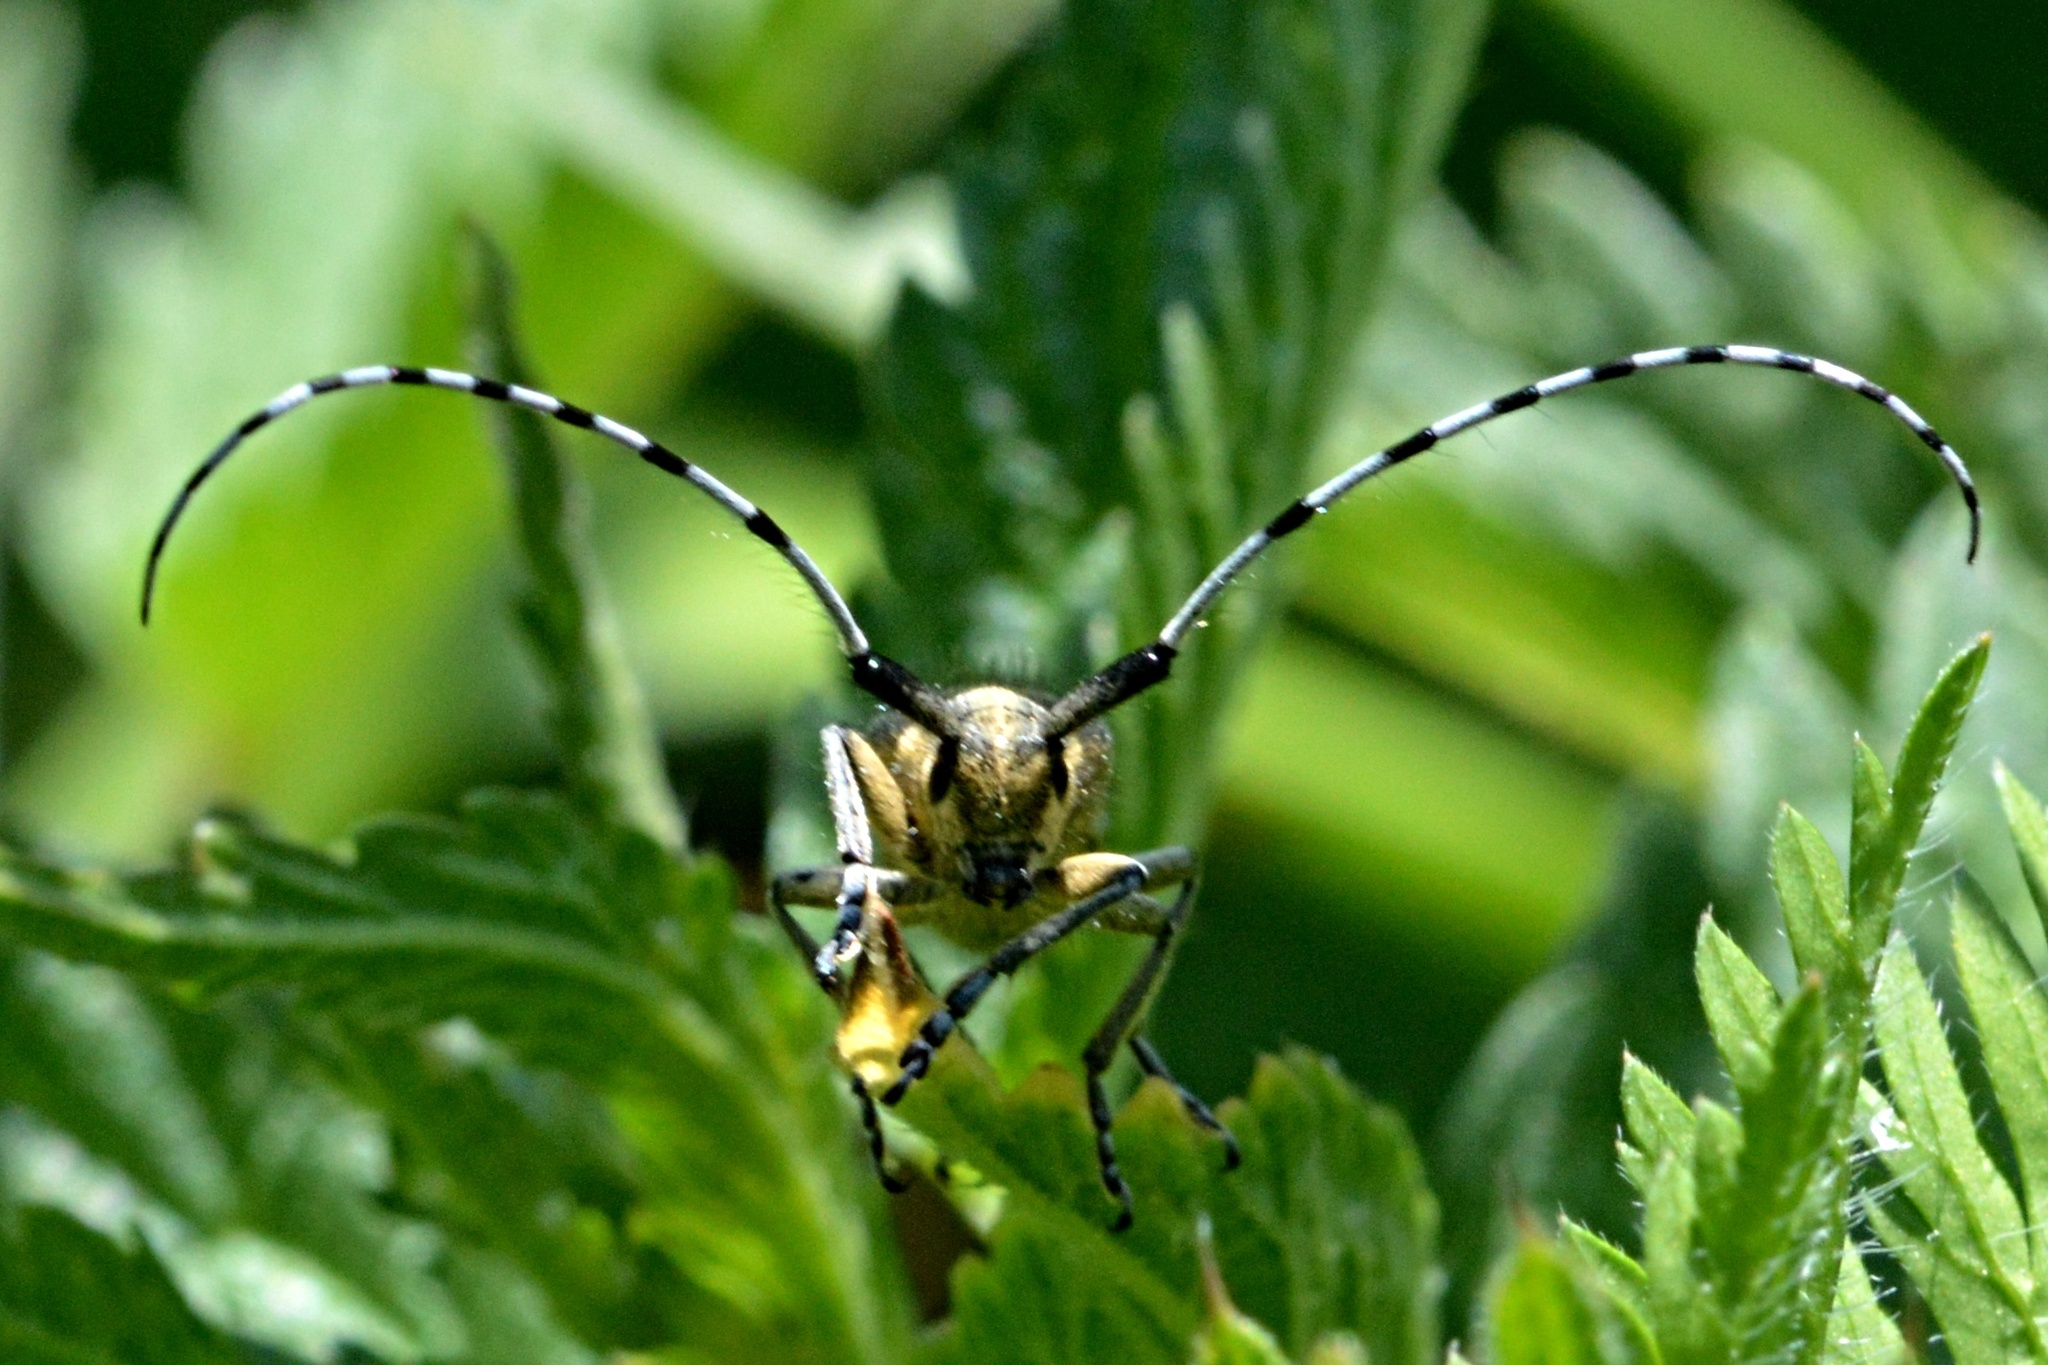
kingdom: Animalia
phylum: Arthropoda
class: Insecta
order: Coleoptera
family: Cerambycidae
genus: Agapanthia
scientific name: Agapanthia villosoviridescens
